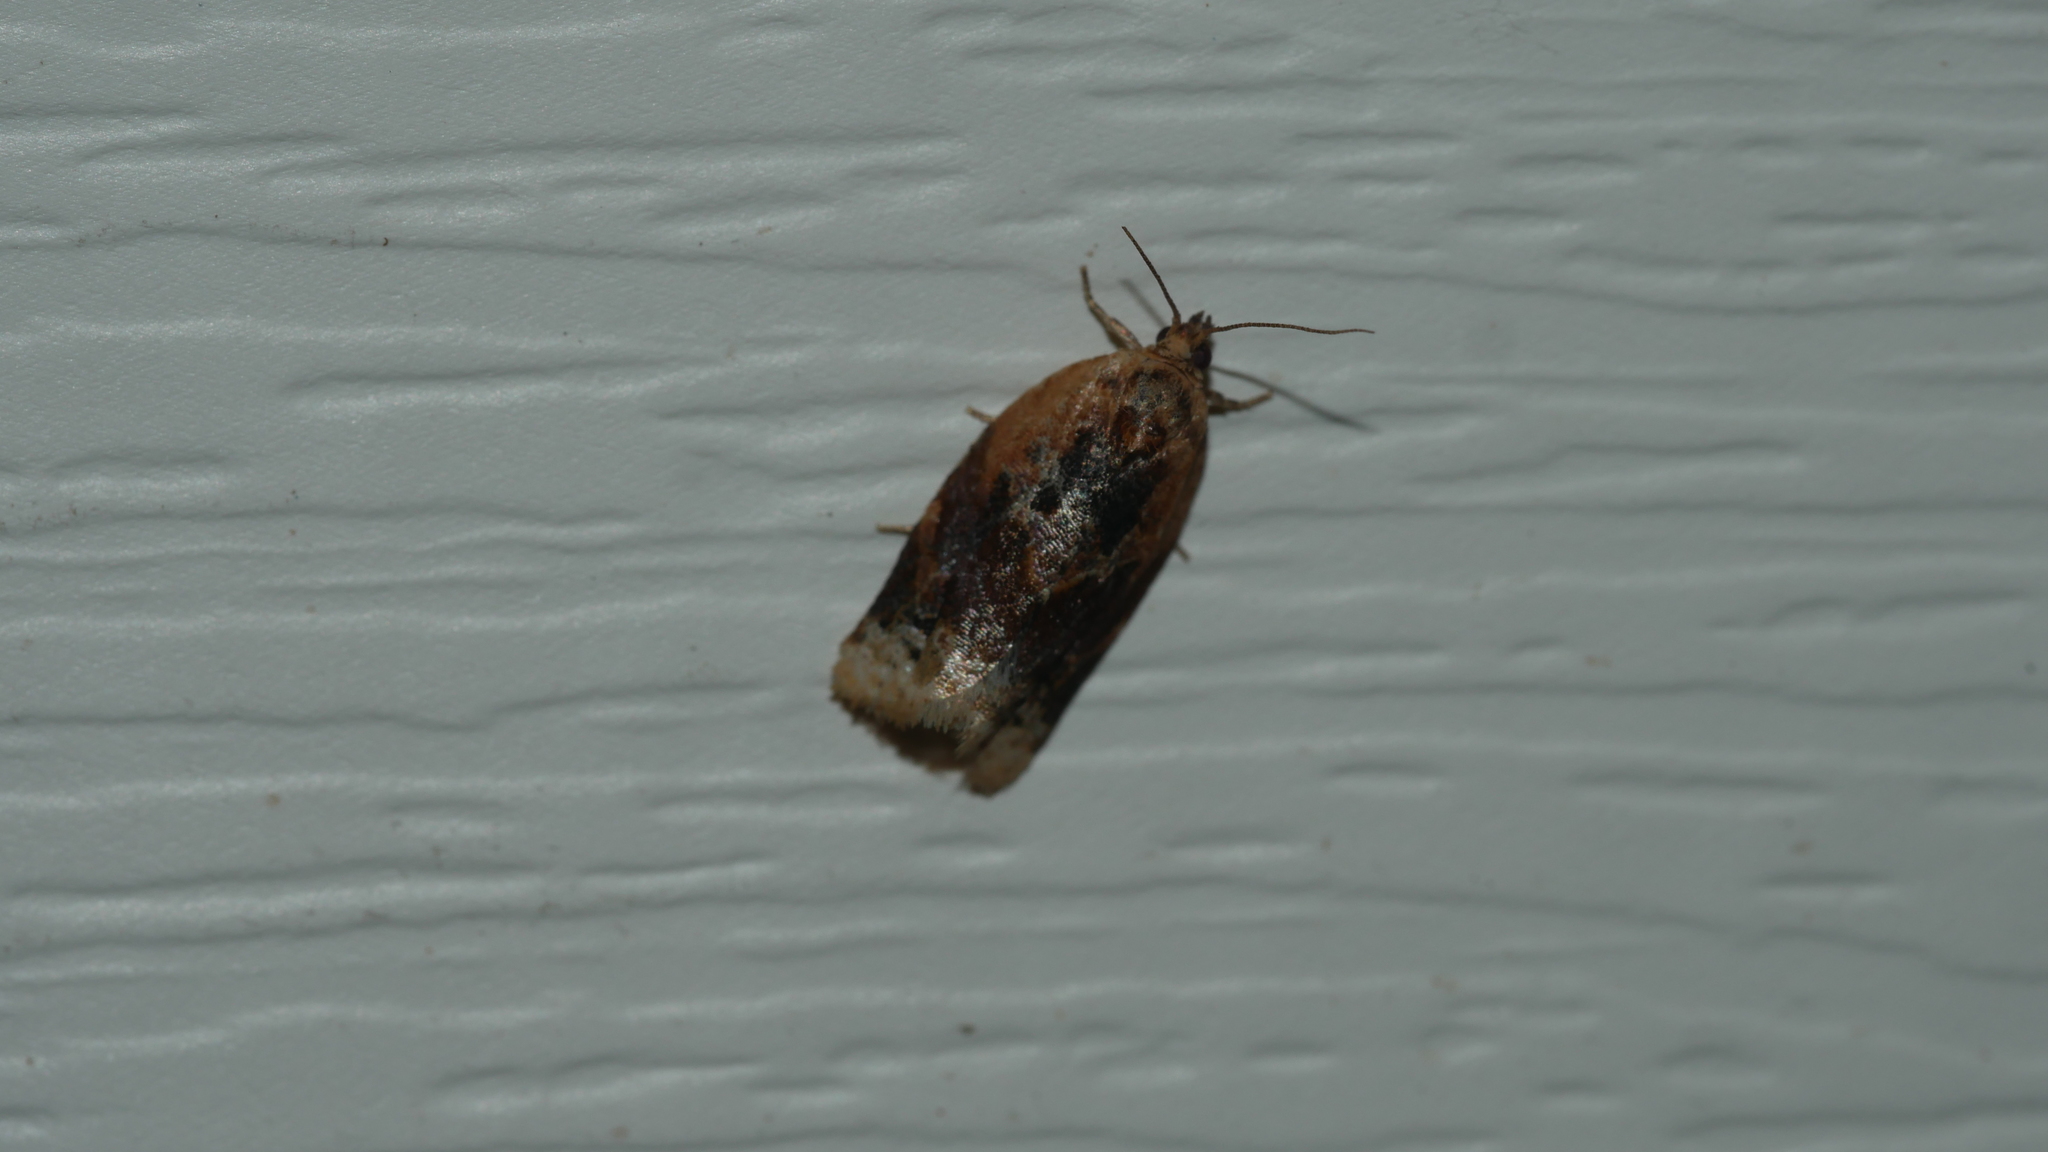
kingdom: Animalia
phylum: Arthropoda
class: Insecta
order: Lepidoptera
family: Tortricidae
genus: Argyrotaenia
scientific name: Argyrotaenia velutinana
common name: Red-banded leafroller moth
